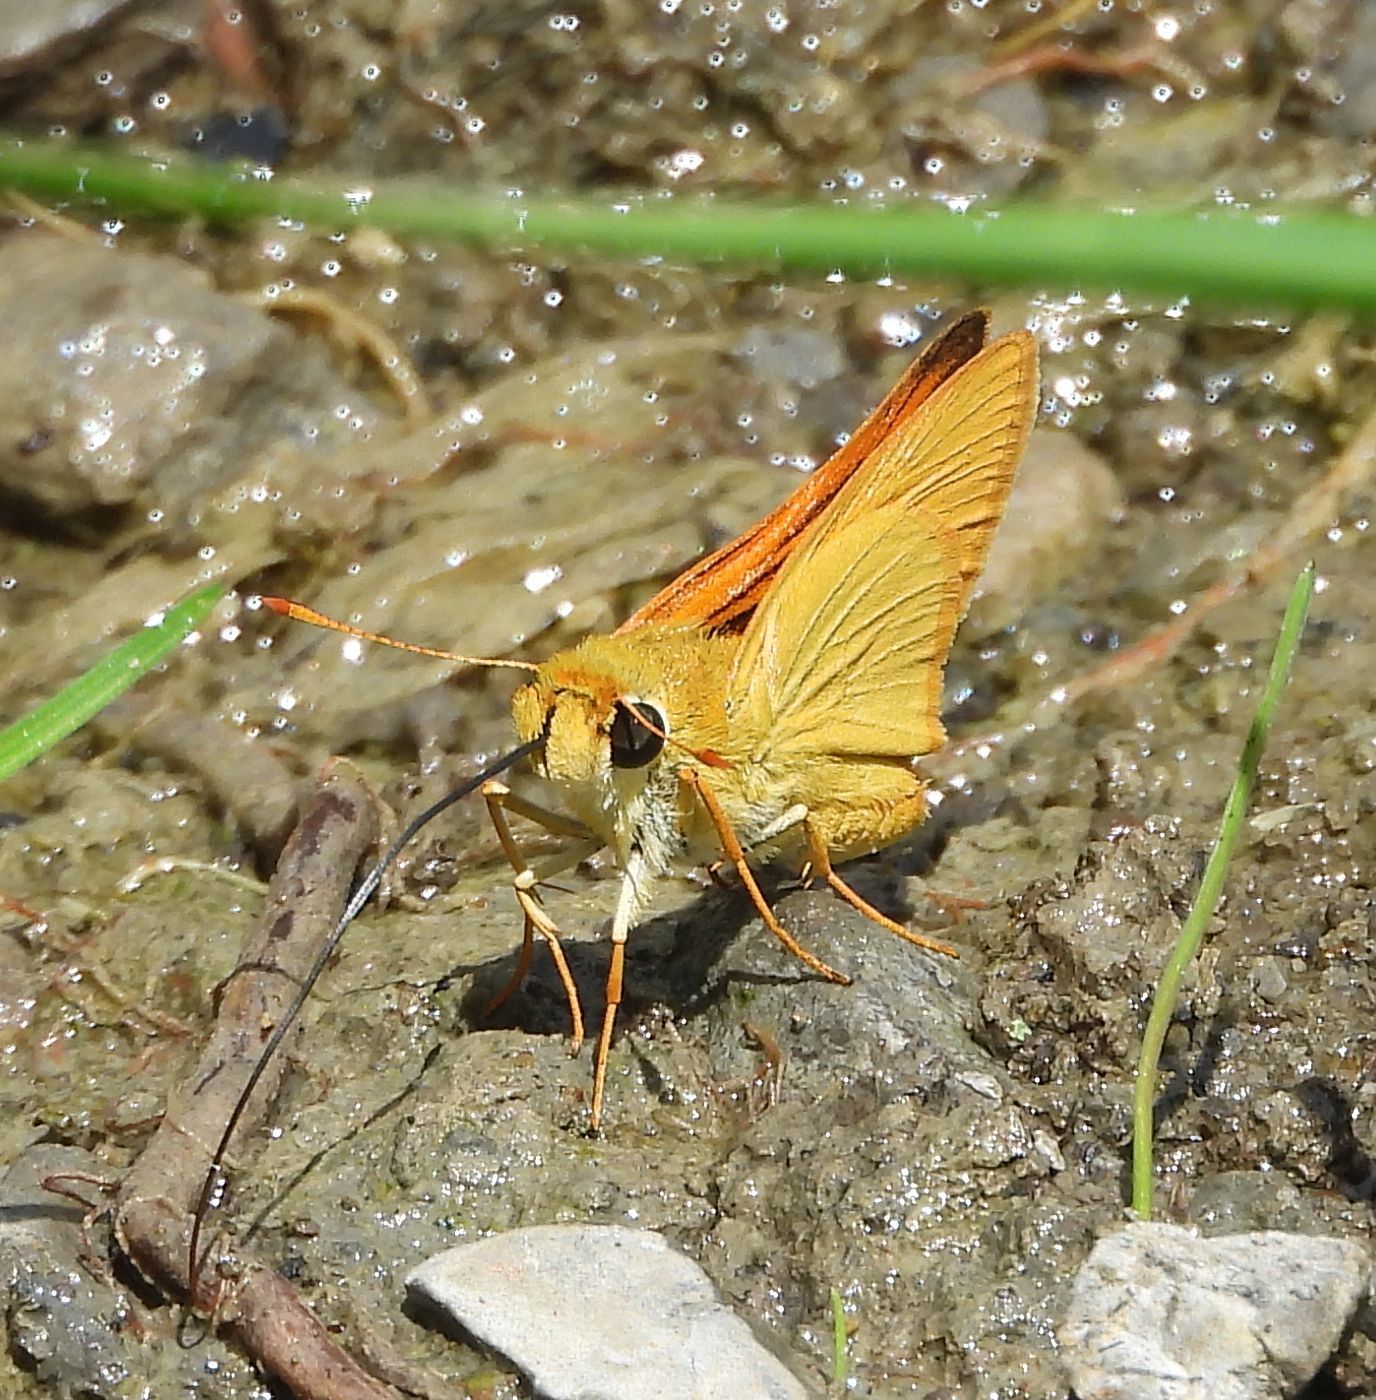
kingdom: Animalia
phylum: Arthropoda
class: Insecta
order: Lepidoptera
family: Hesperiidae
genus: Atrytone
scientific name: Atrytone delaware
